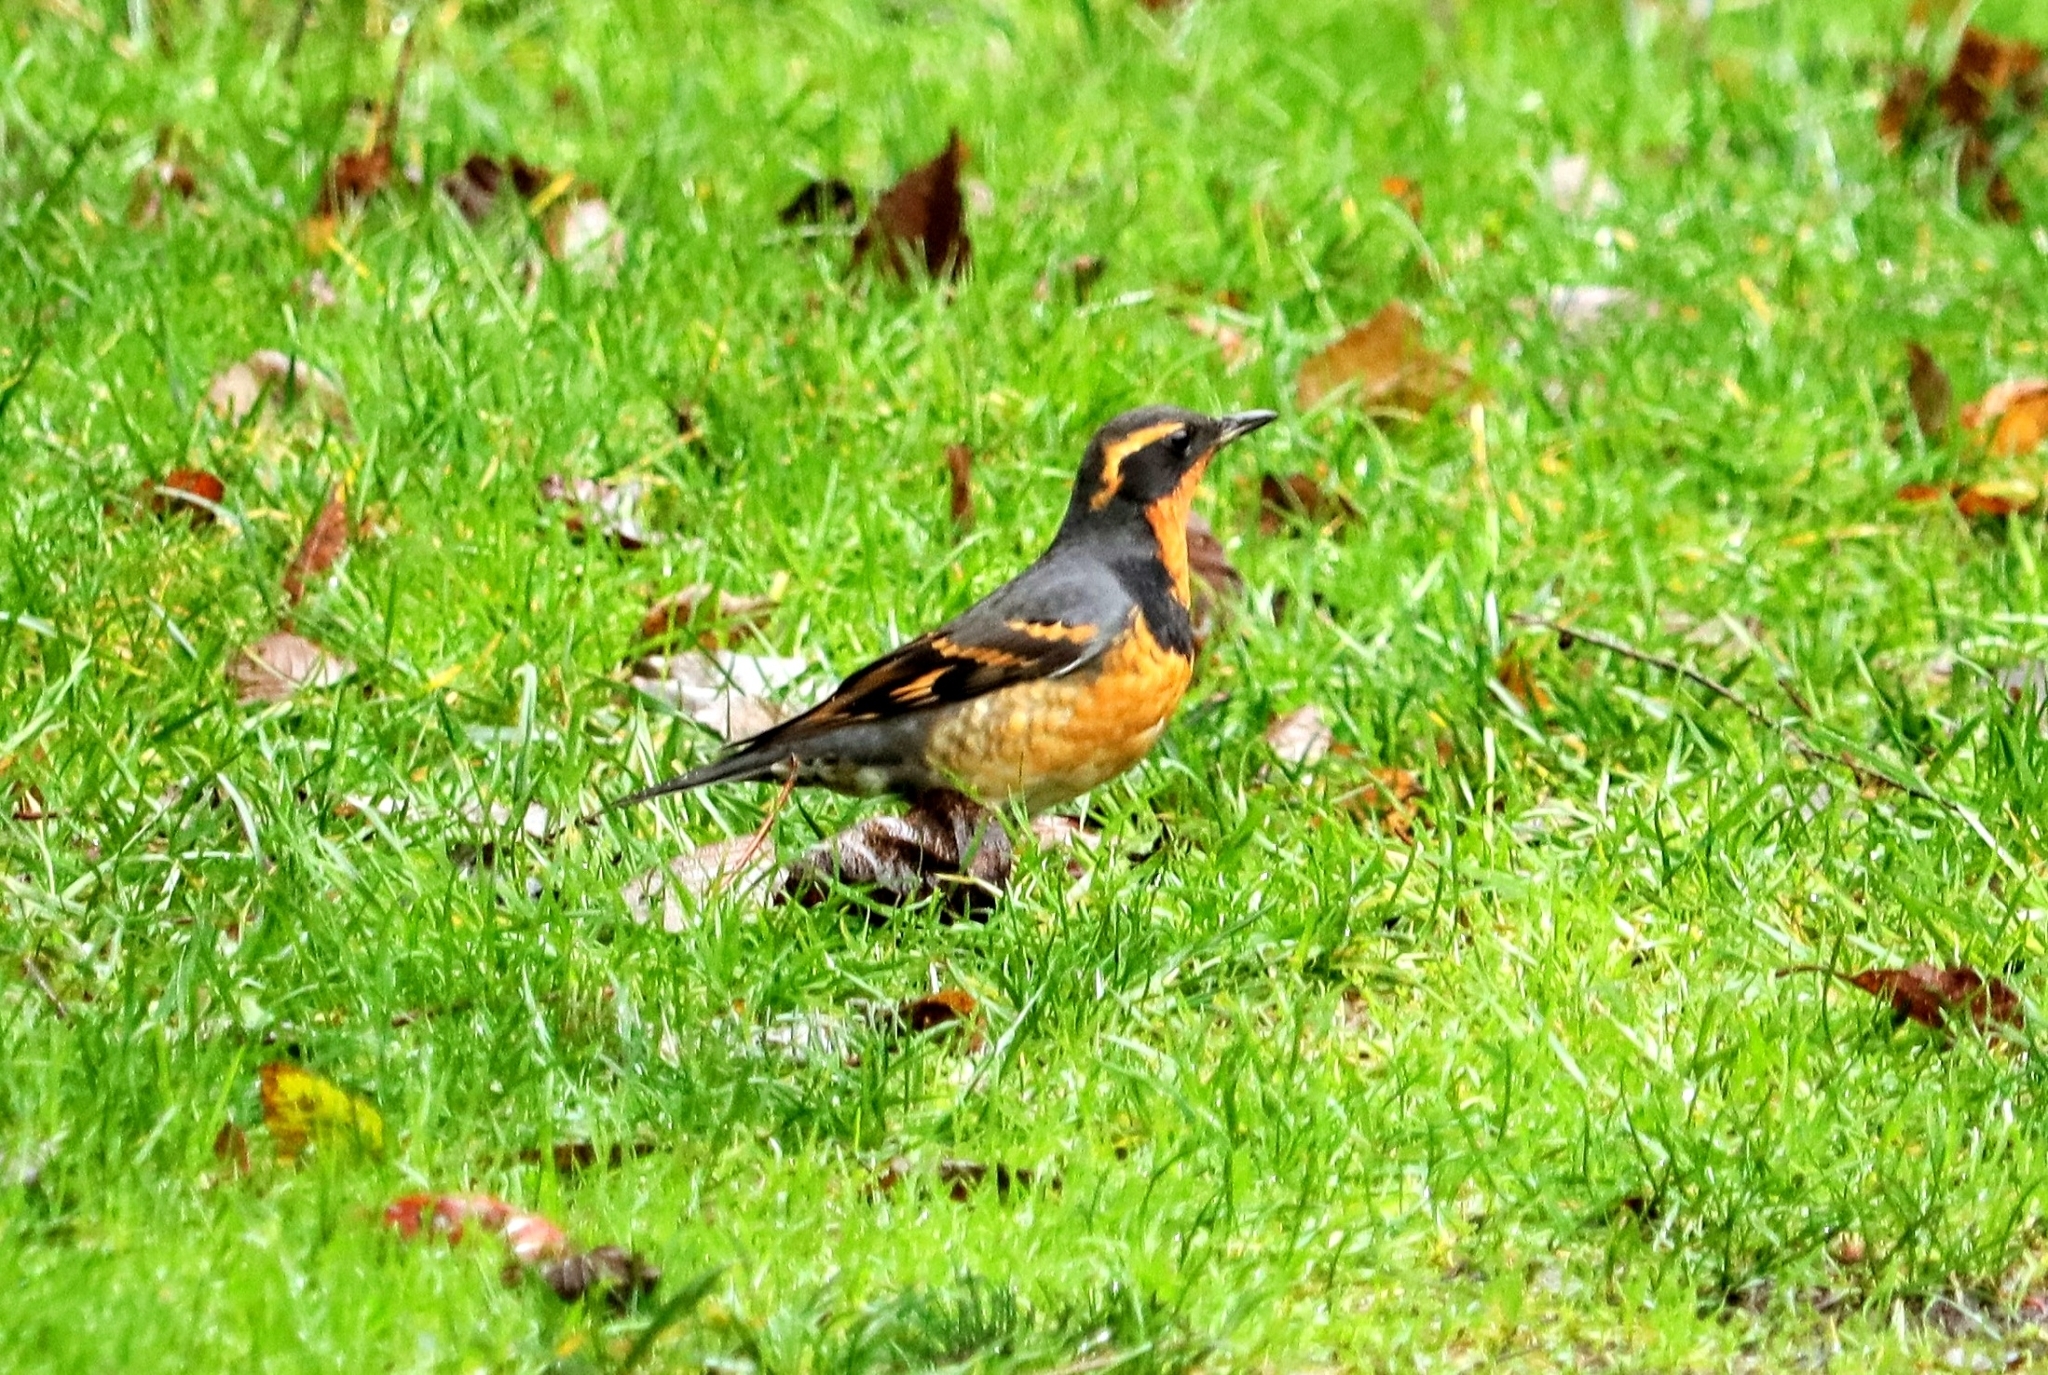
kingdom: Animalia
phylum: Chordata
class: Aves
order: Passeriformes
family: Turdidae
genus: Ixoreus
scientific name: Ixoreus naevius
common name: Varied thrush
